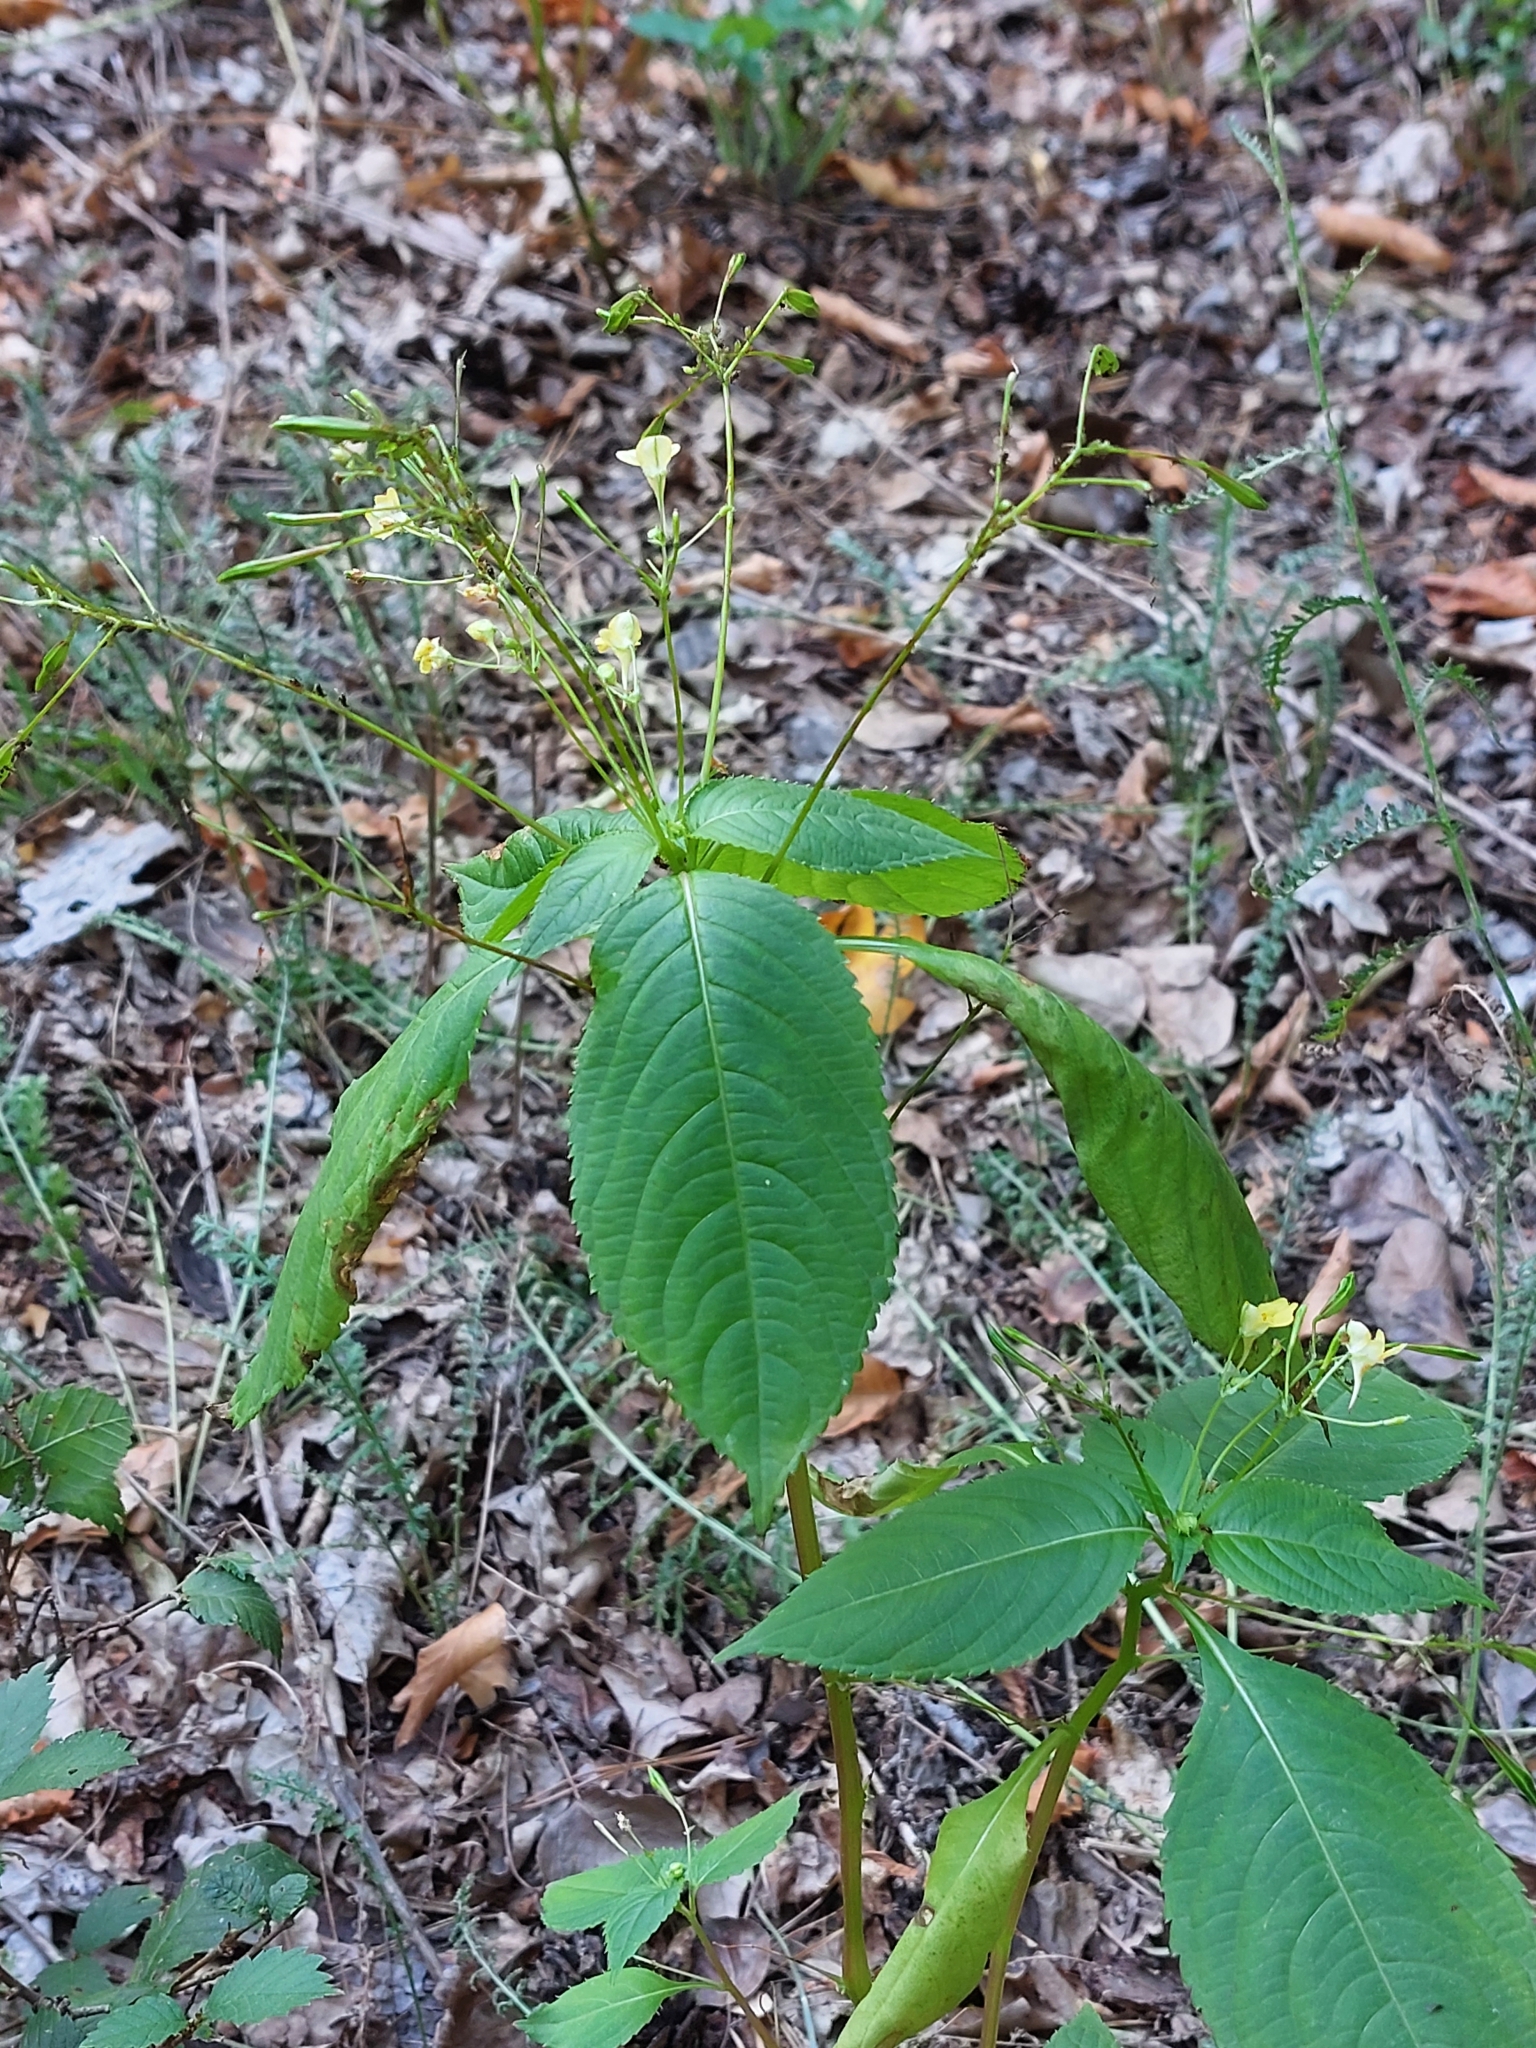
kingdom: Plantae
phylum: Tracheophyta
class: Magnoliopsida
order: Ericales
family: Balsaminaceae
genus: Impatiens
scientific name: Impatiens parviflora
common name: Small balsam
